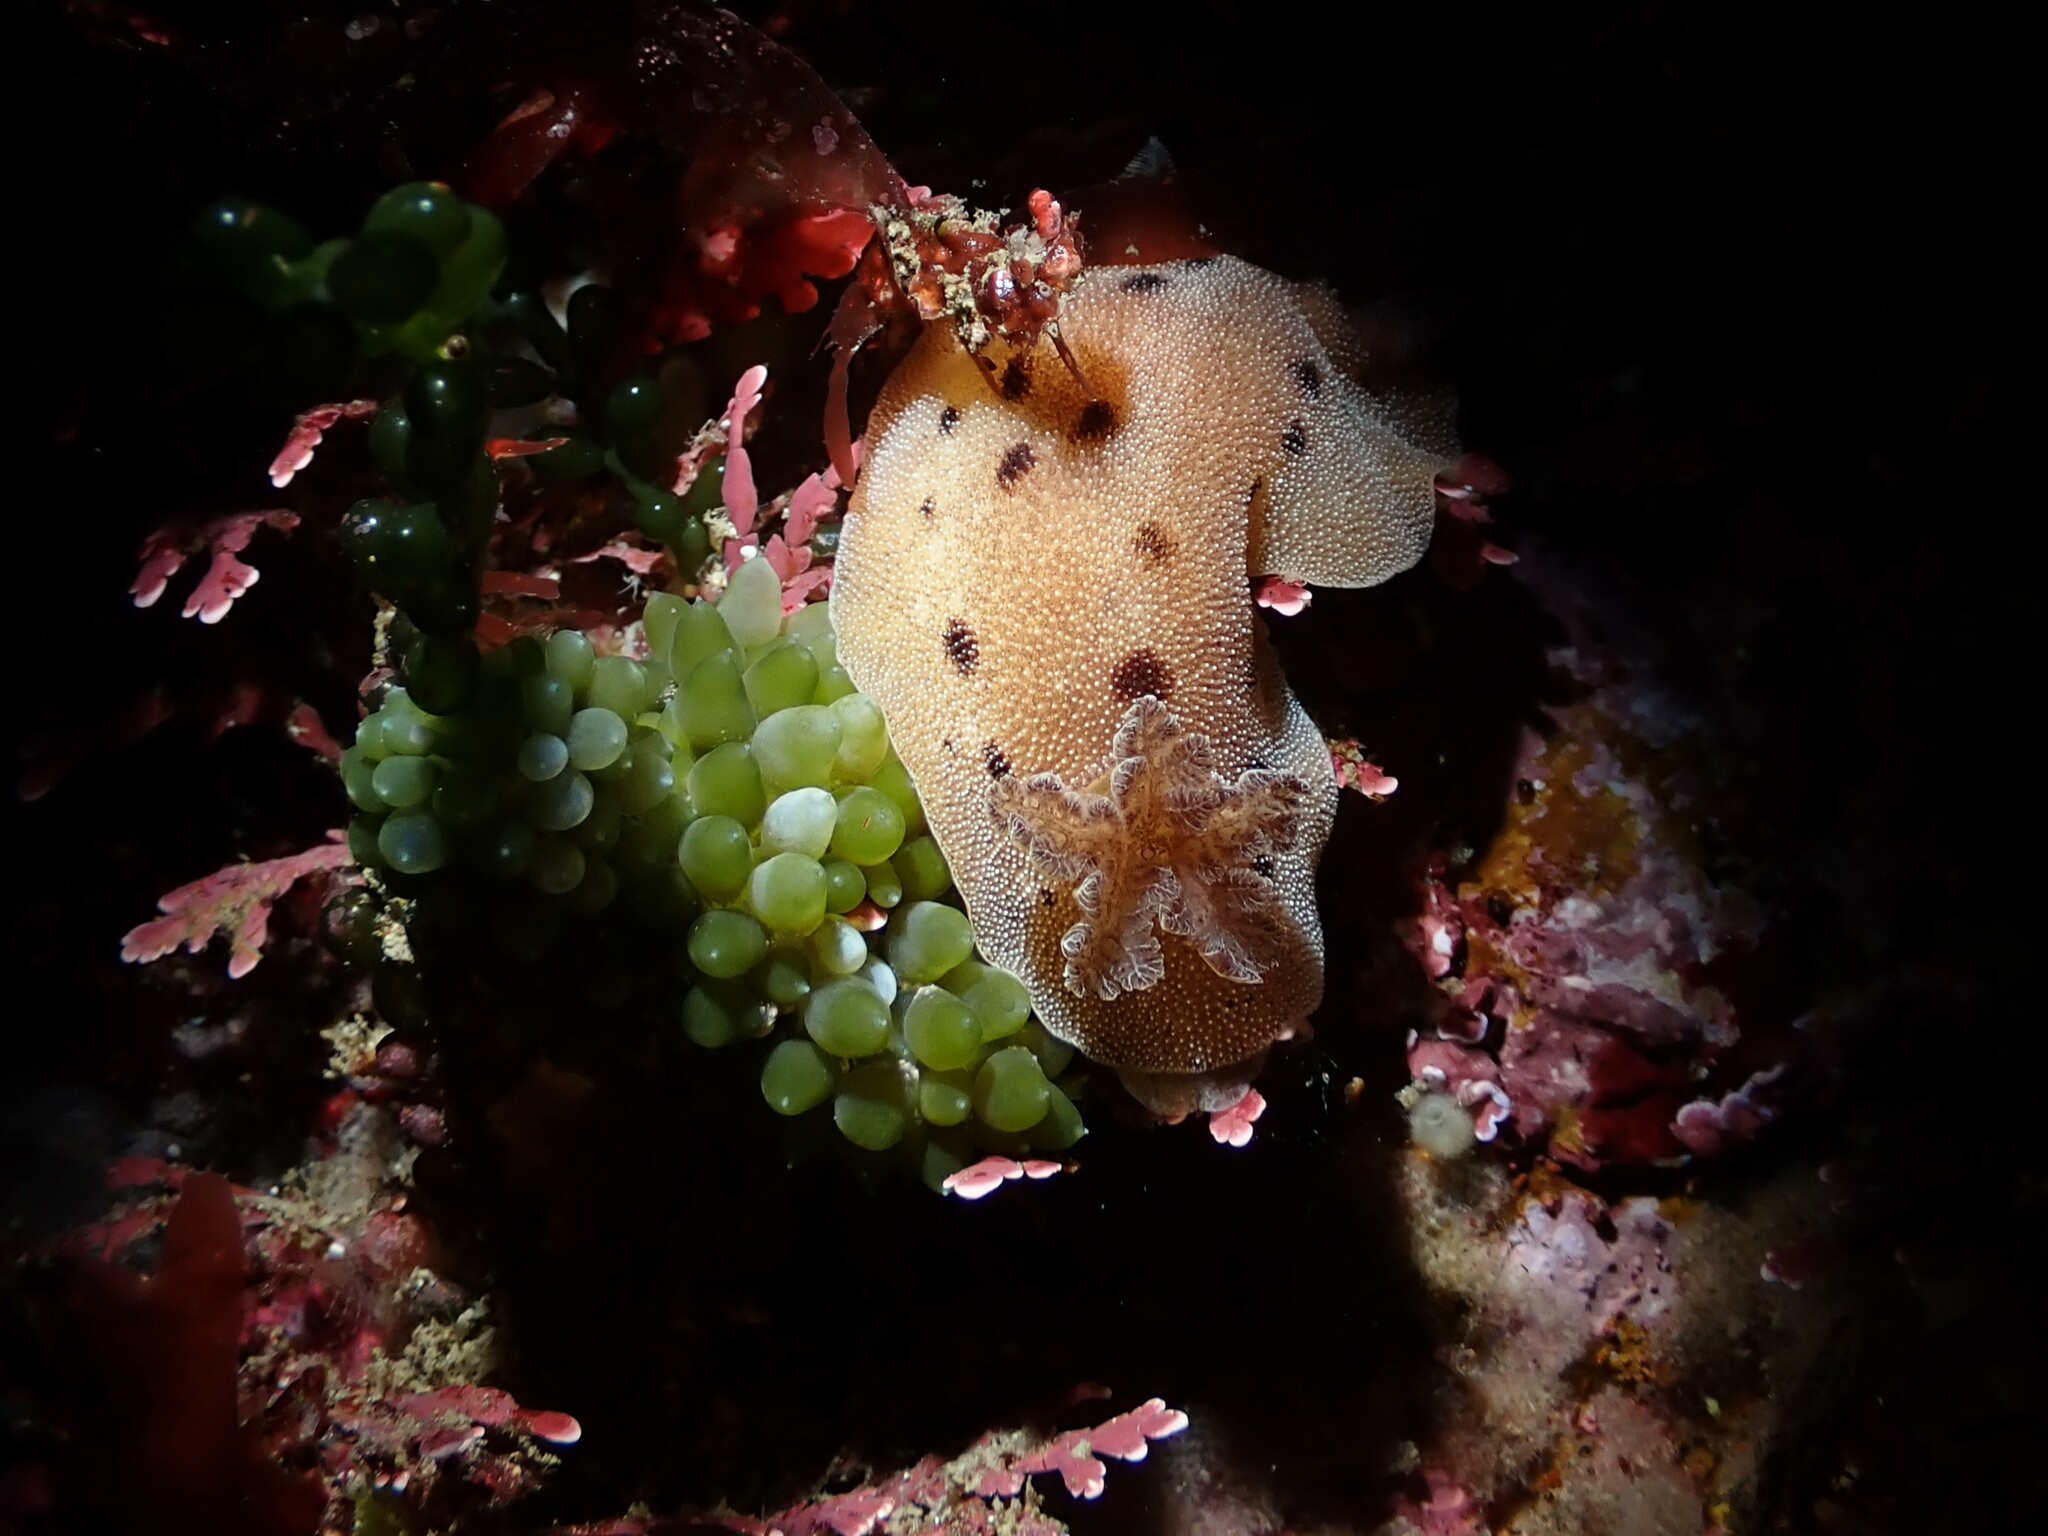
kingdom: Animalia
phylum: Mollusca
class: Gastropoda
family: Limapontiidae
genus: Sacoproteus
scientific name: Sacoproteus smaragdinus
